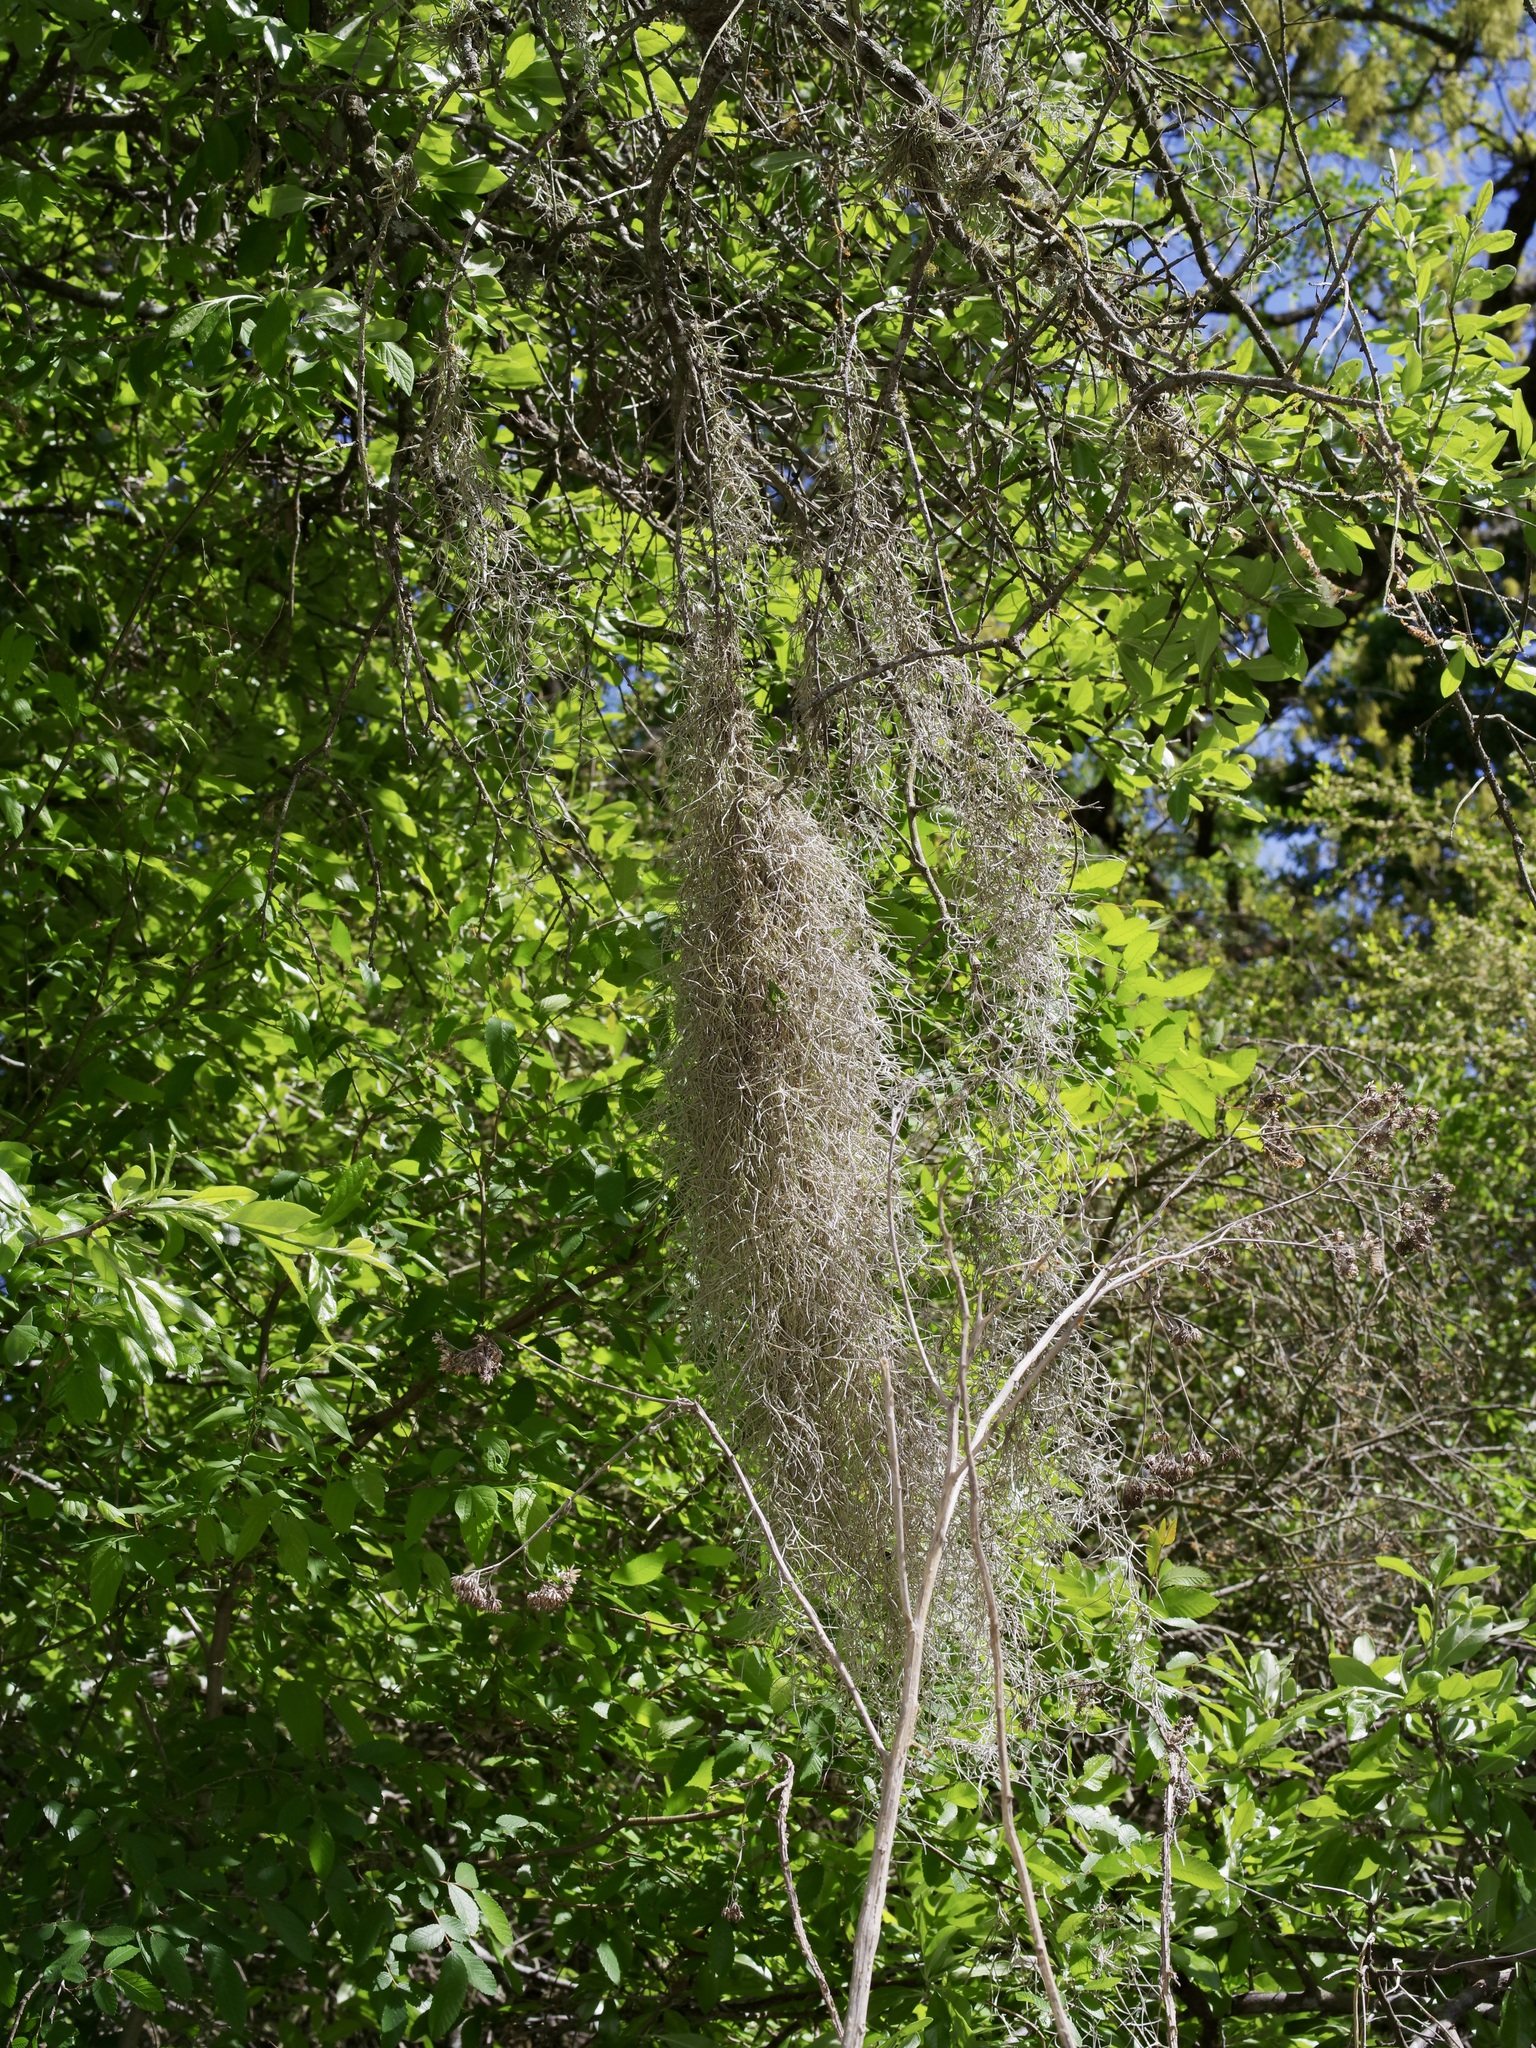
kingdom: Plantae
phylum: Tracheophyta
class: Liliopsida
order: Poales
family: Bromeliaceae
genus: Tillandsia
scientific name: Tillandsia usneoides
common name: Spanish moss
